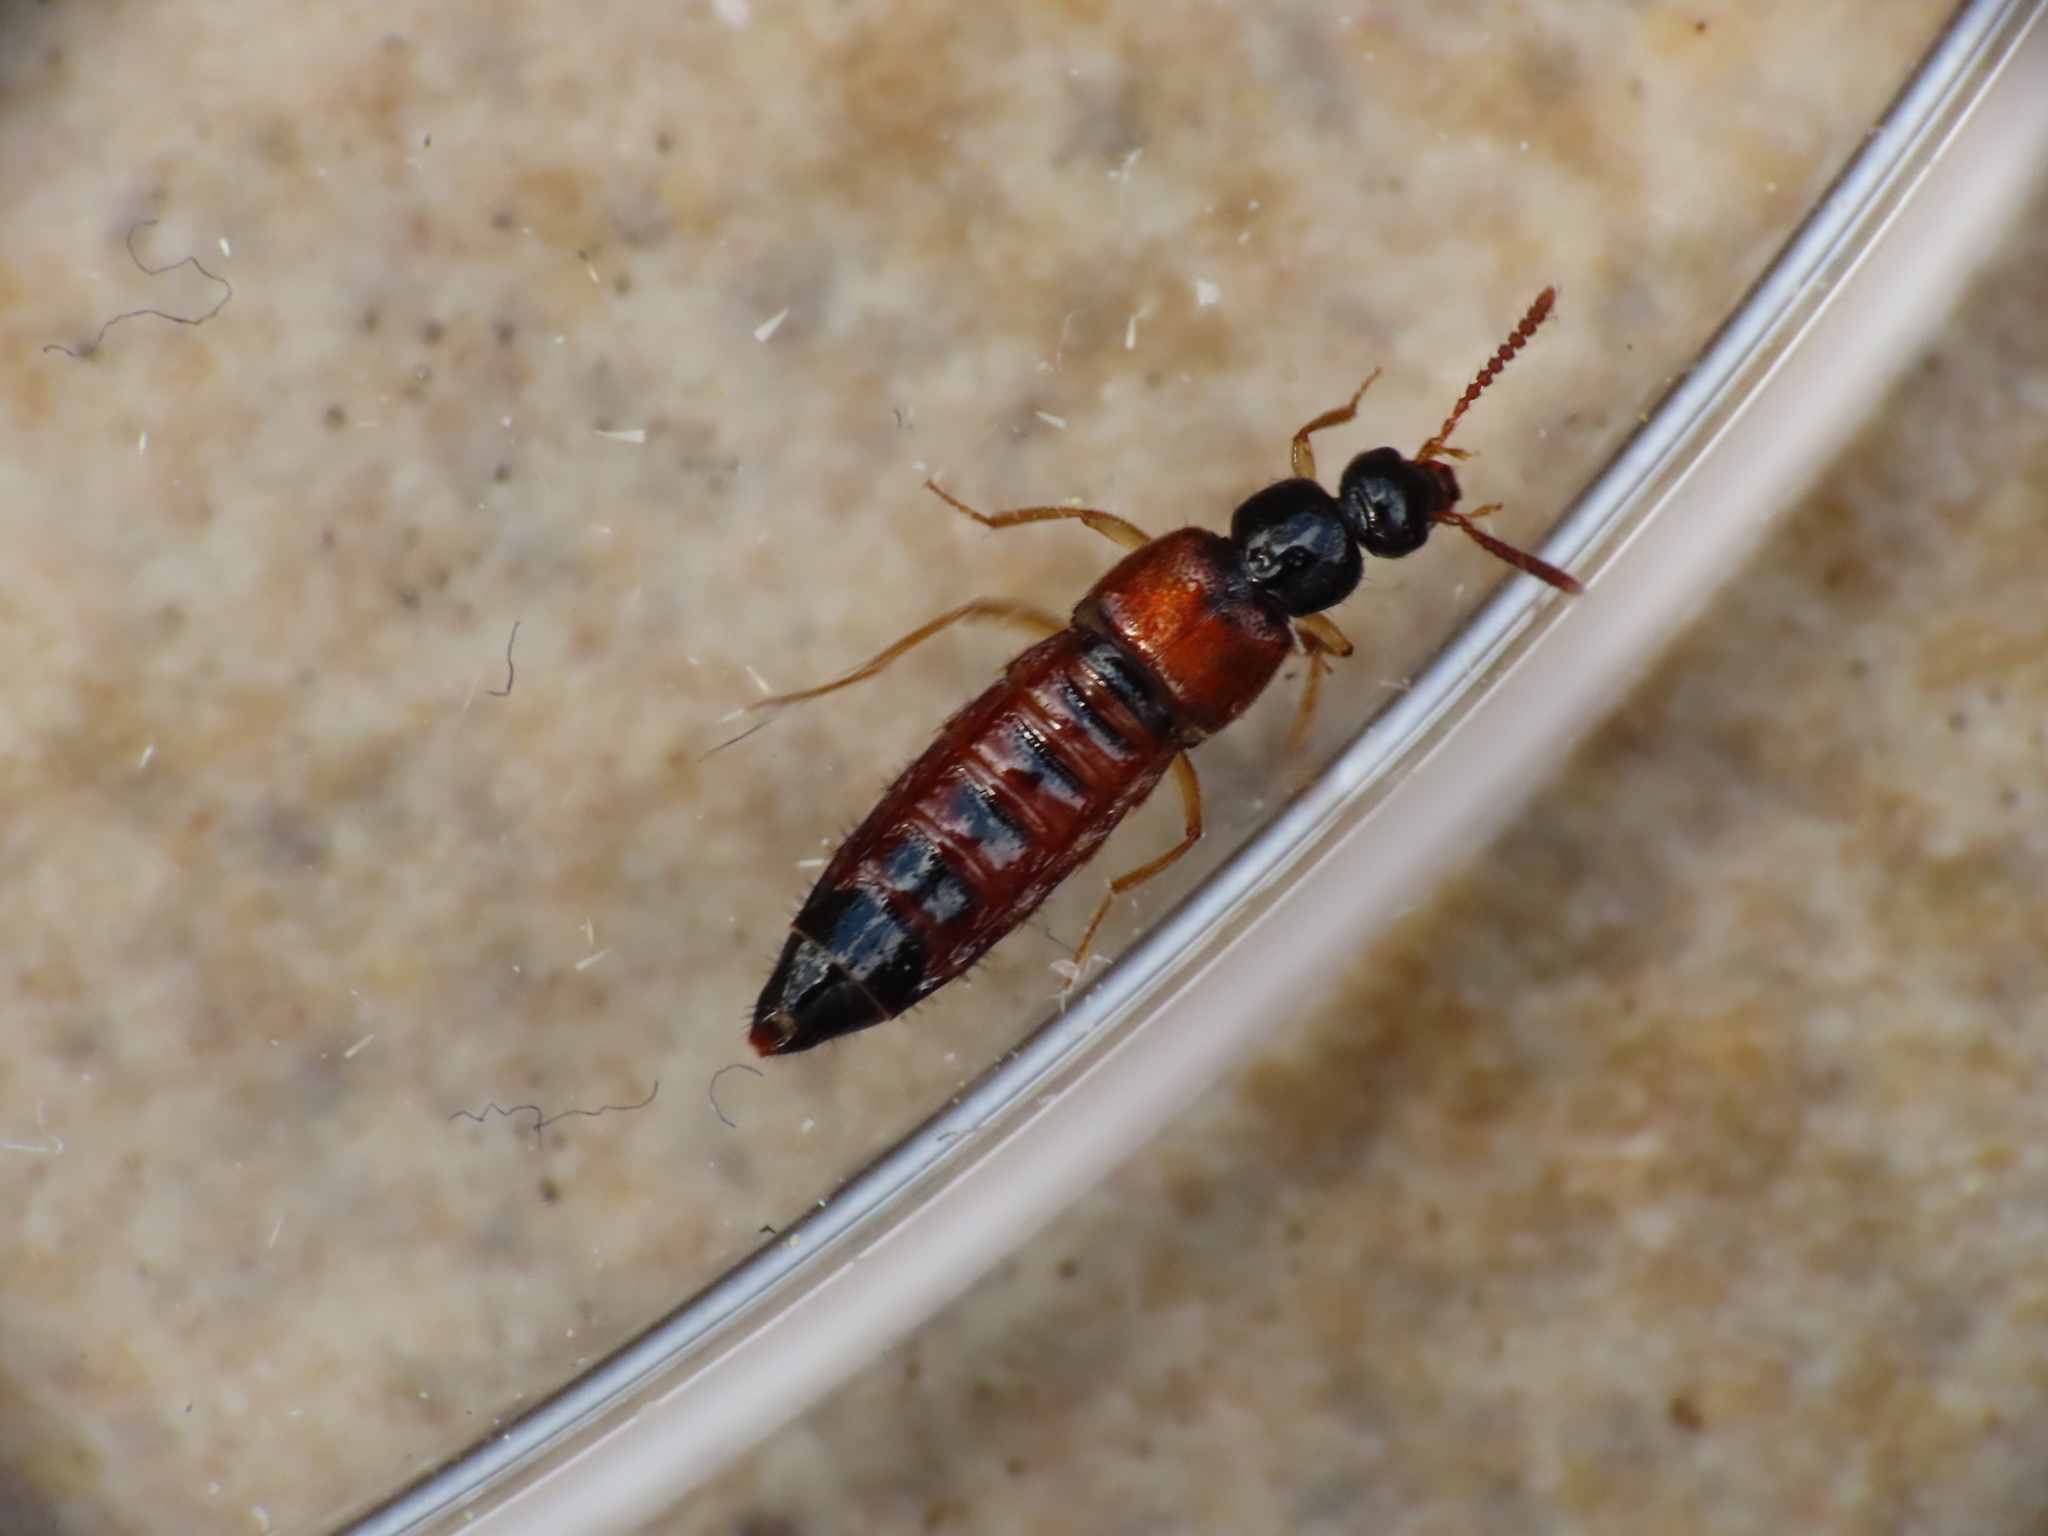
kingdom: Animalia
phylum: Arthropoda
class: Insecta
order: Coleoptera
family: Staphylinidae
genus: Zyras
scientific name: Zyras haworthi
